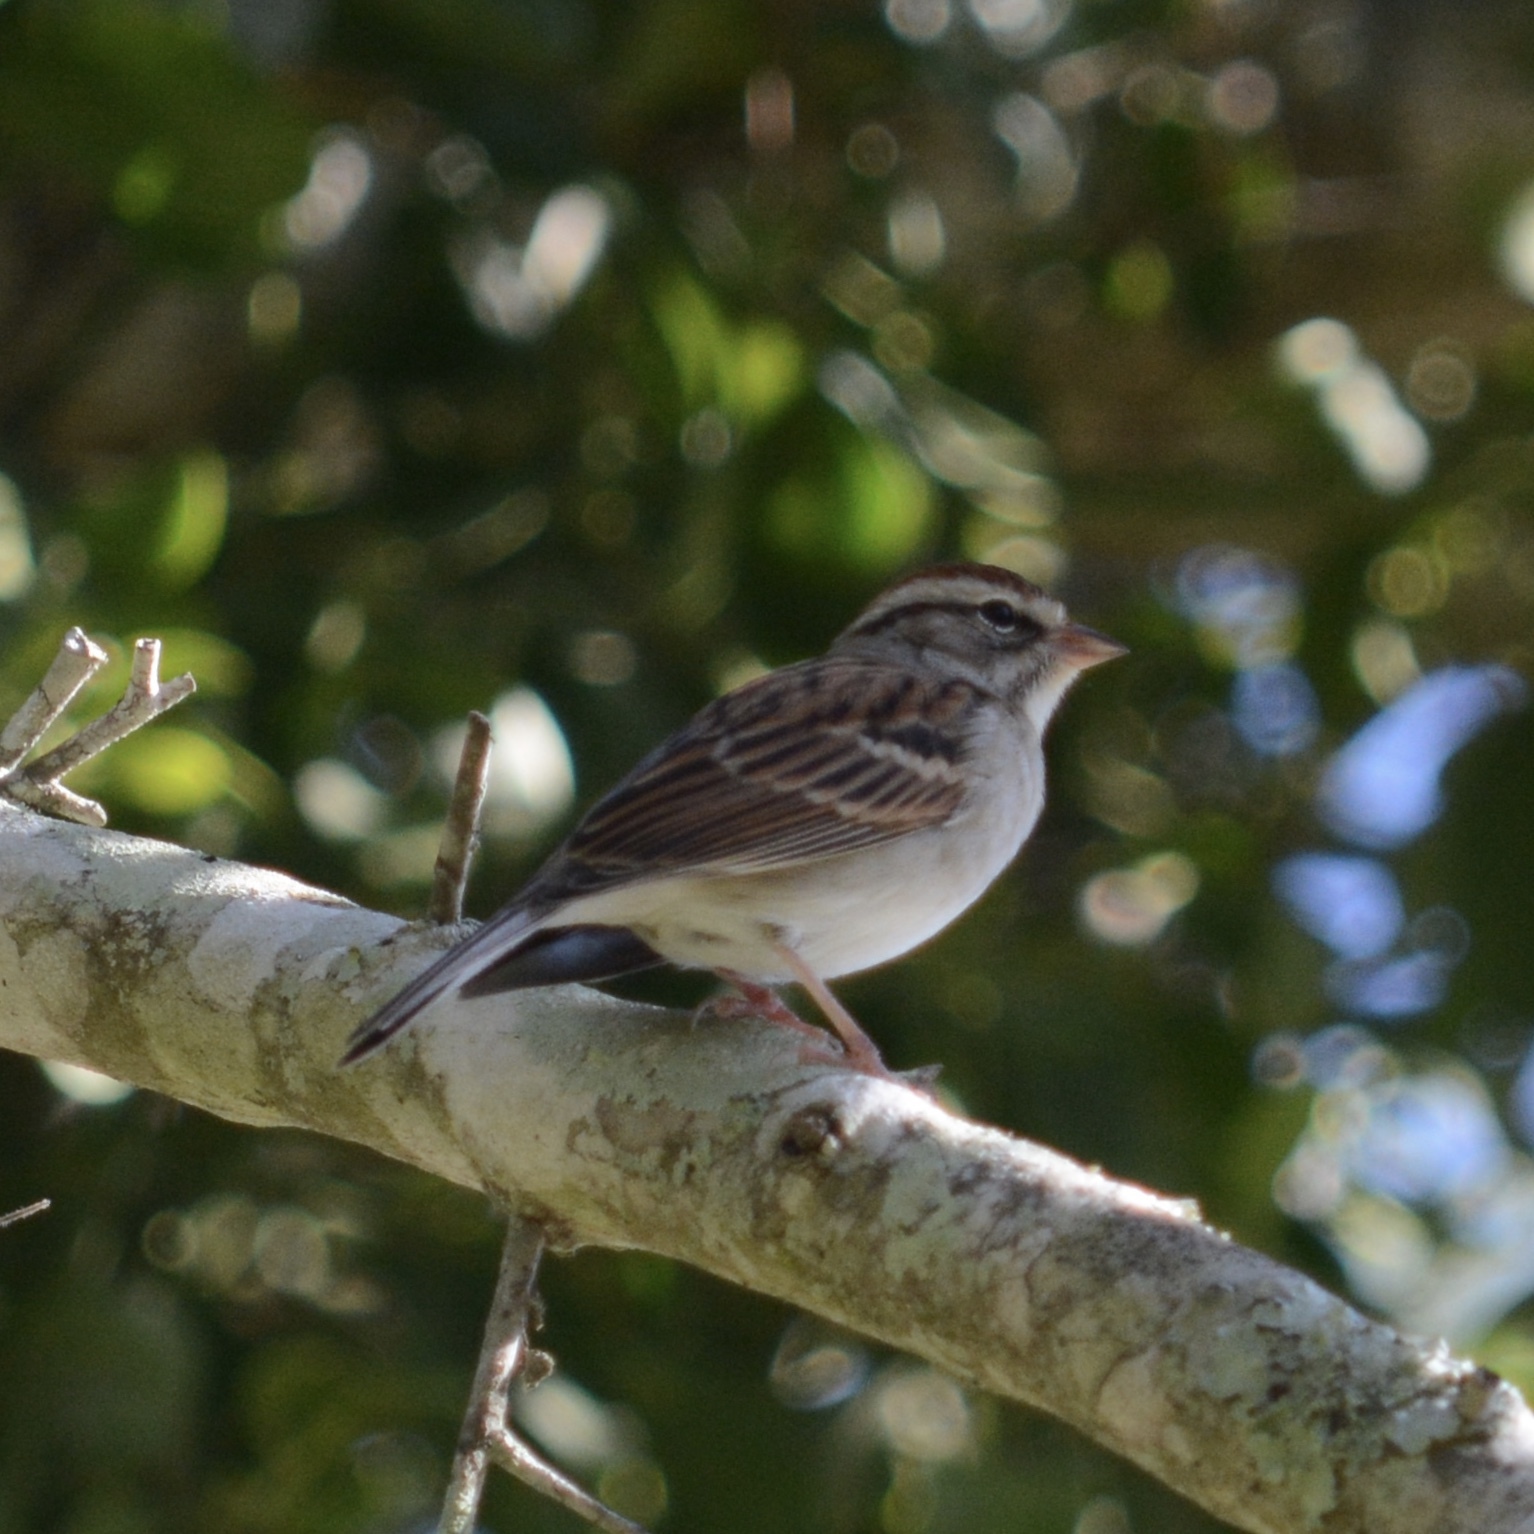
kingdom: Animalia
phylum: Chordata
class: Aves
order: Passeriformes
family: Passerellidae
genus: Spizella
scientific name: Spizella passerina
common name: Chipping sparrow
